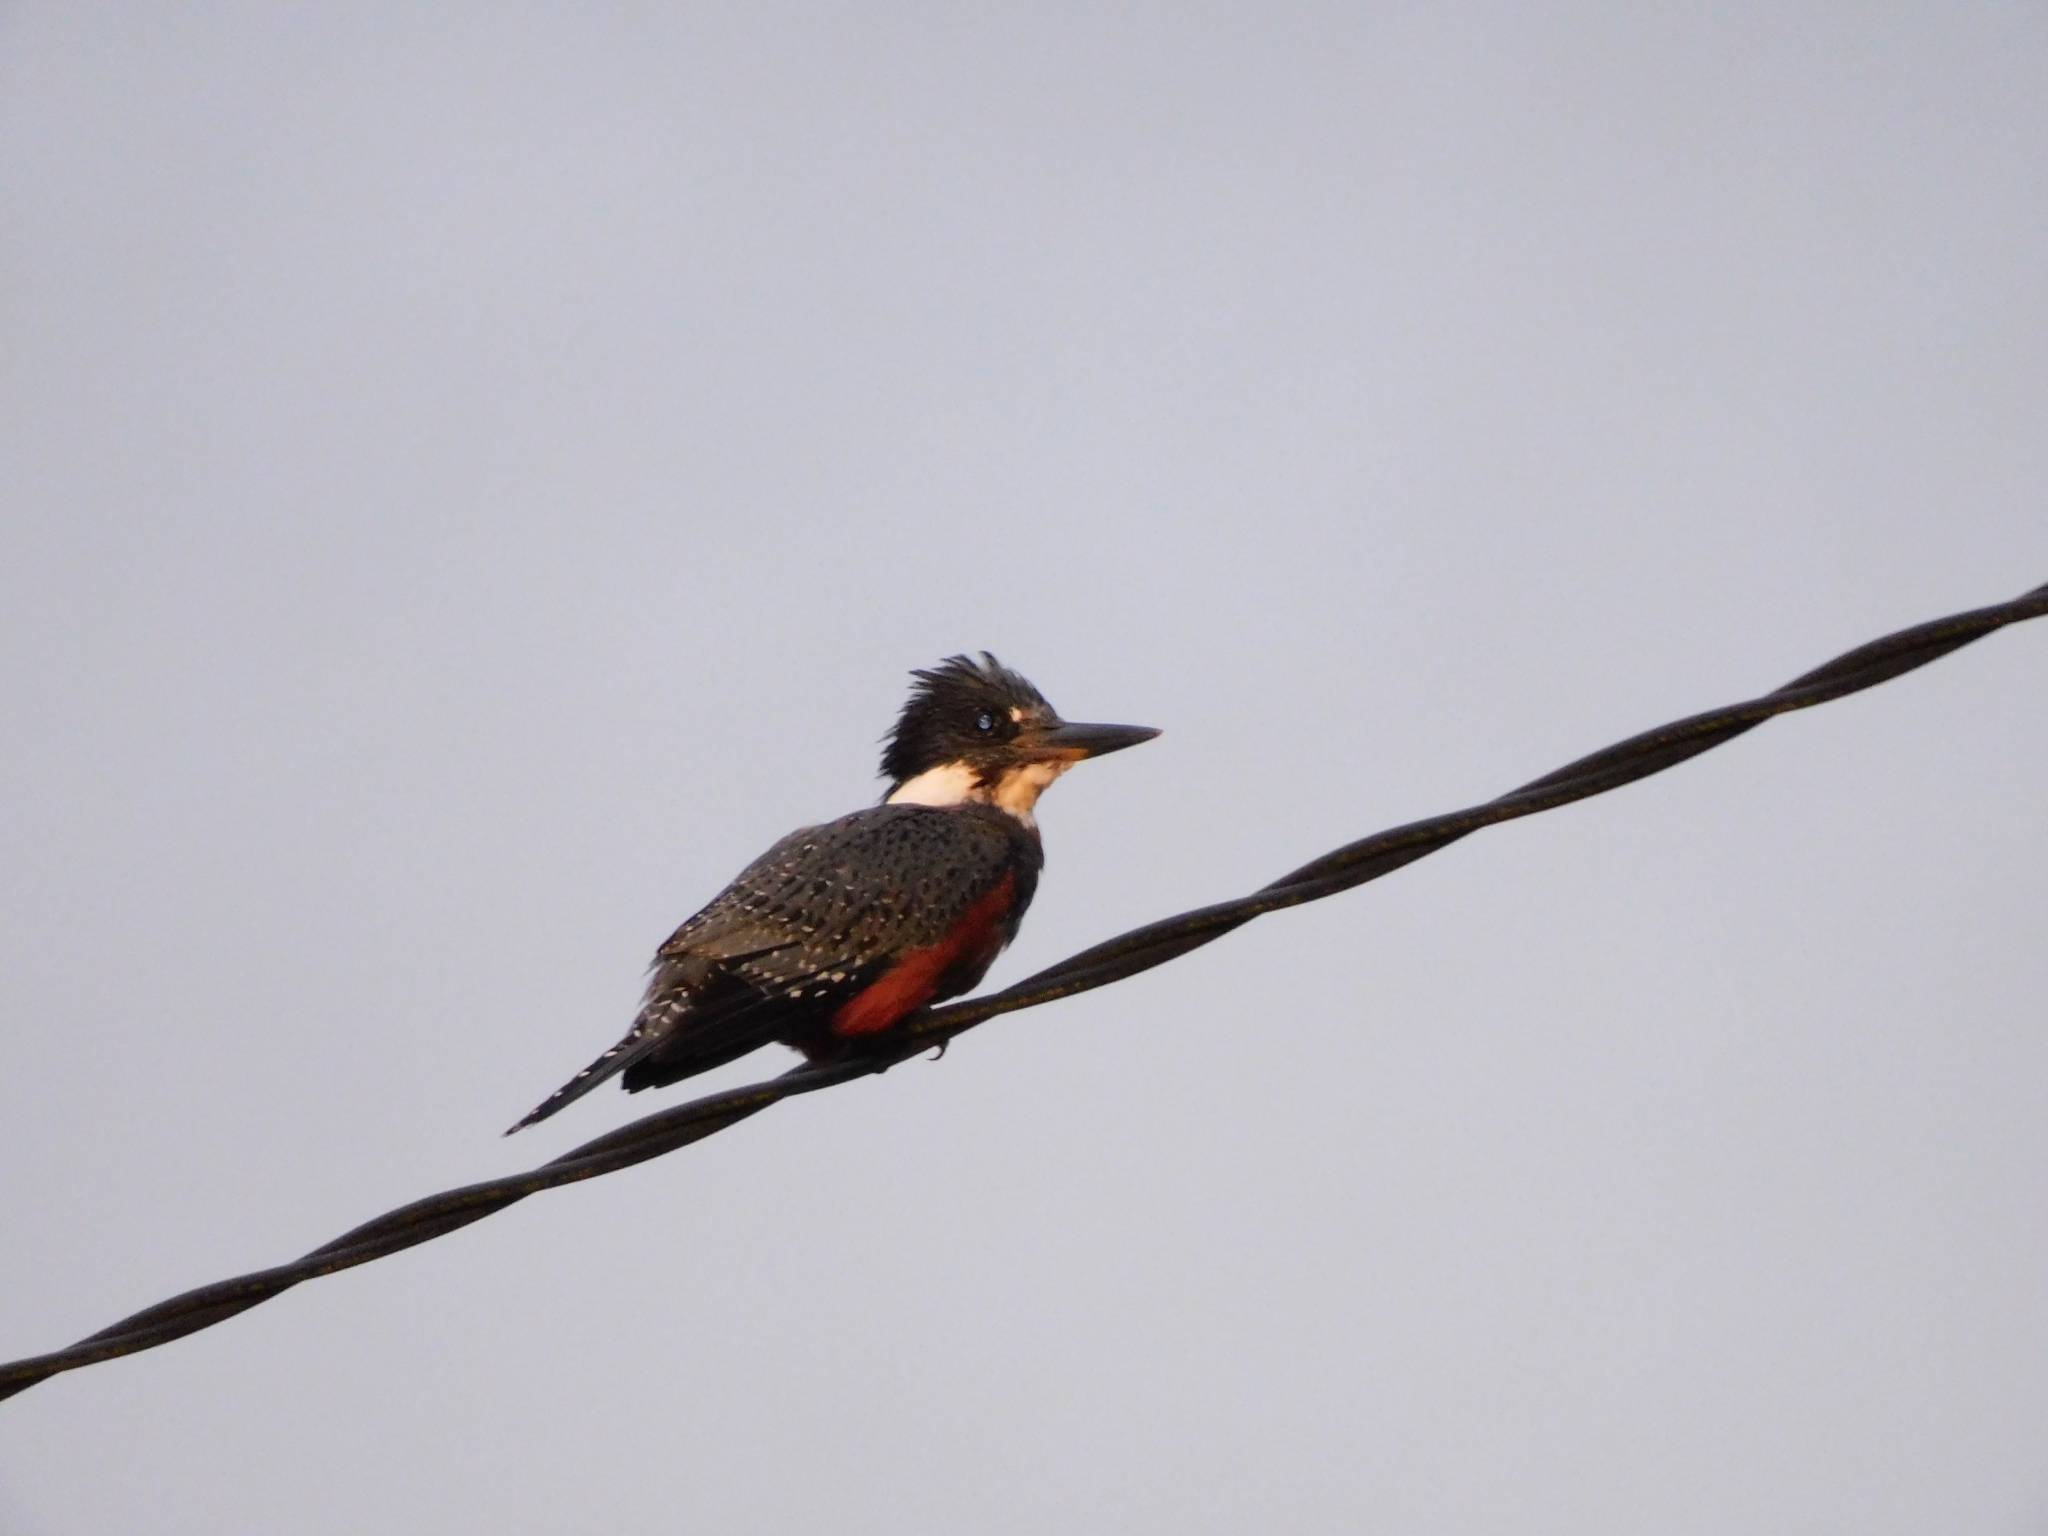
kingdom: Animalia
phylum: Chordata
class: Aves
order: Coraciiformes
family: Alcedinidae
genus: Megaceryle
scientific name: Megaceryle torquata
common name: Ringed kingfisher
